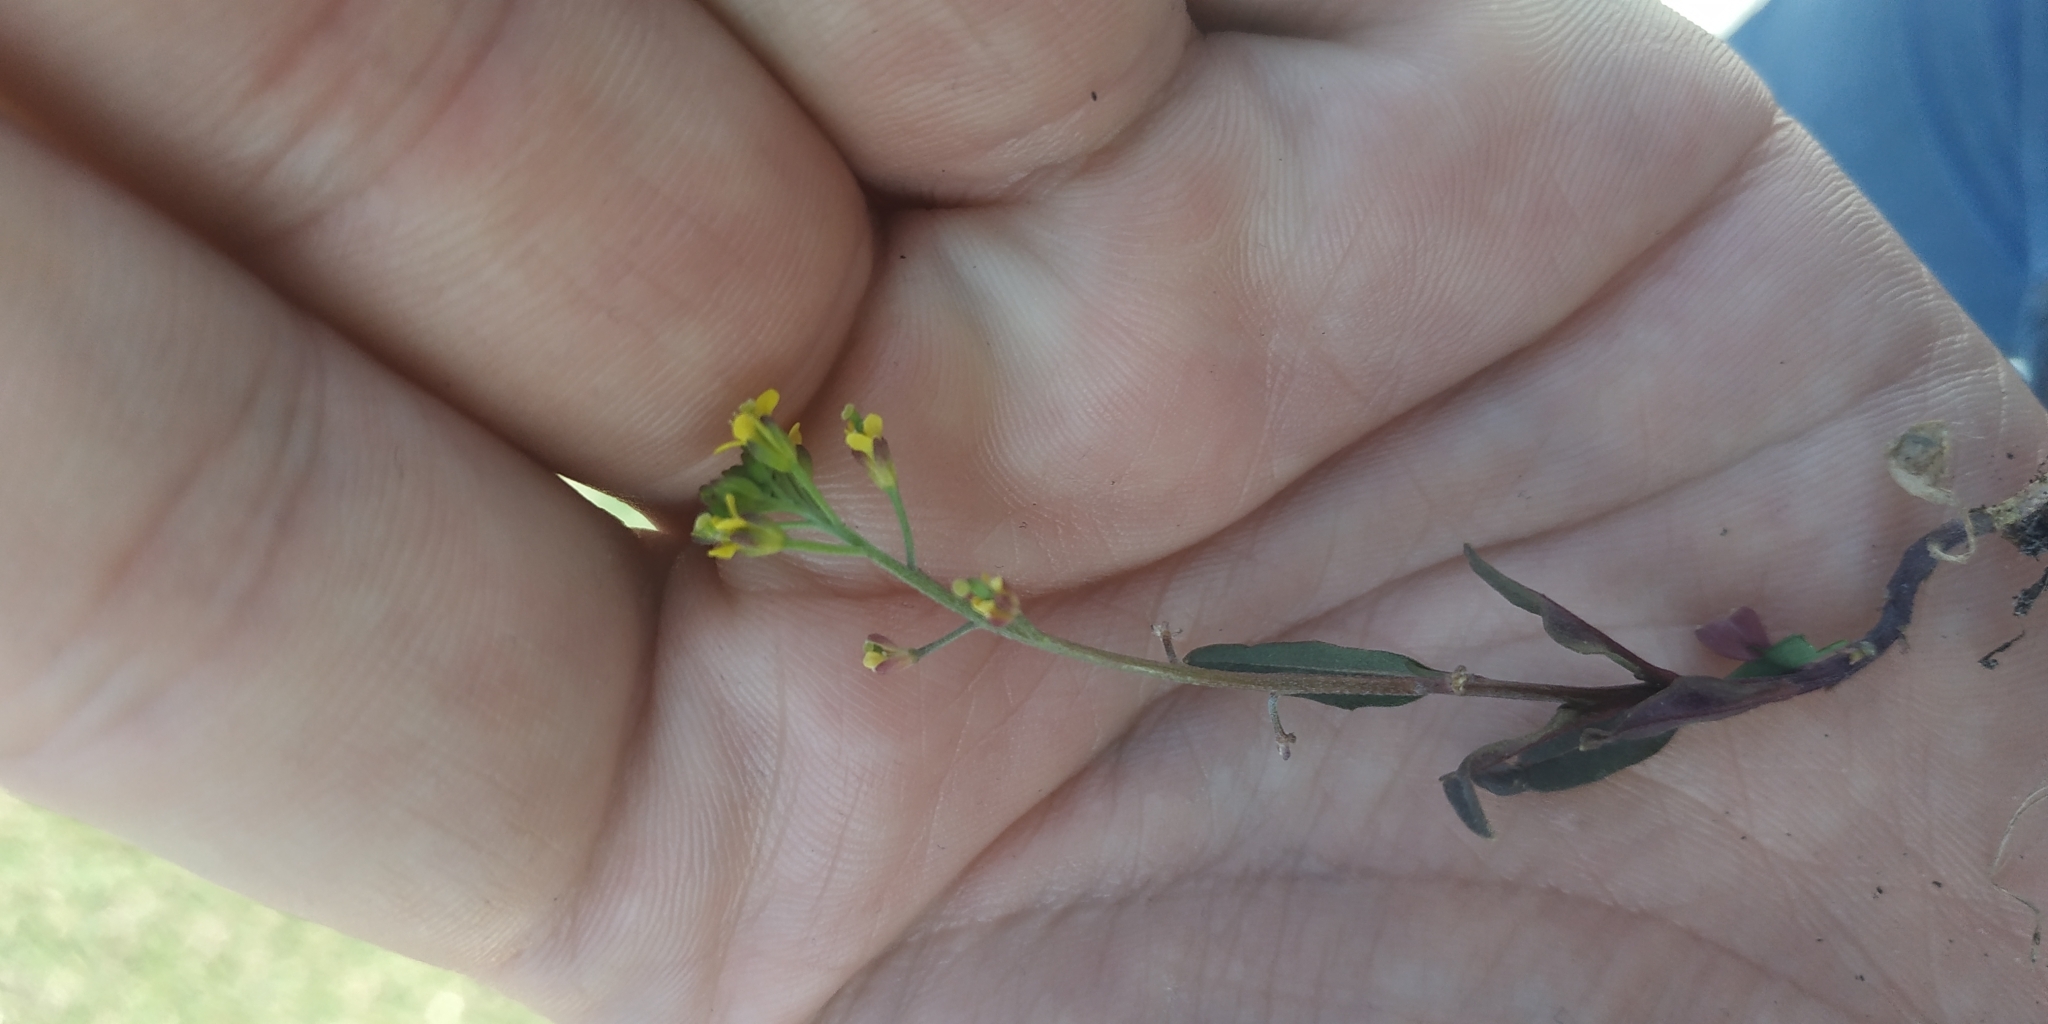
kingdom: Plantae
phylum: Tracheophyta
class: Magnoliopsida
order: Brassicales
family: Brassicaceae
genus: Erysimum
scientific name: Erysimum cheiranthoides
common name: Treacle mustard
